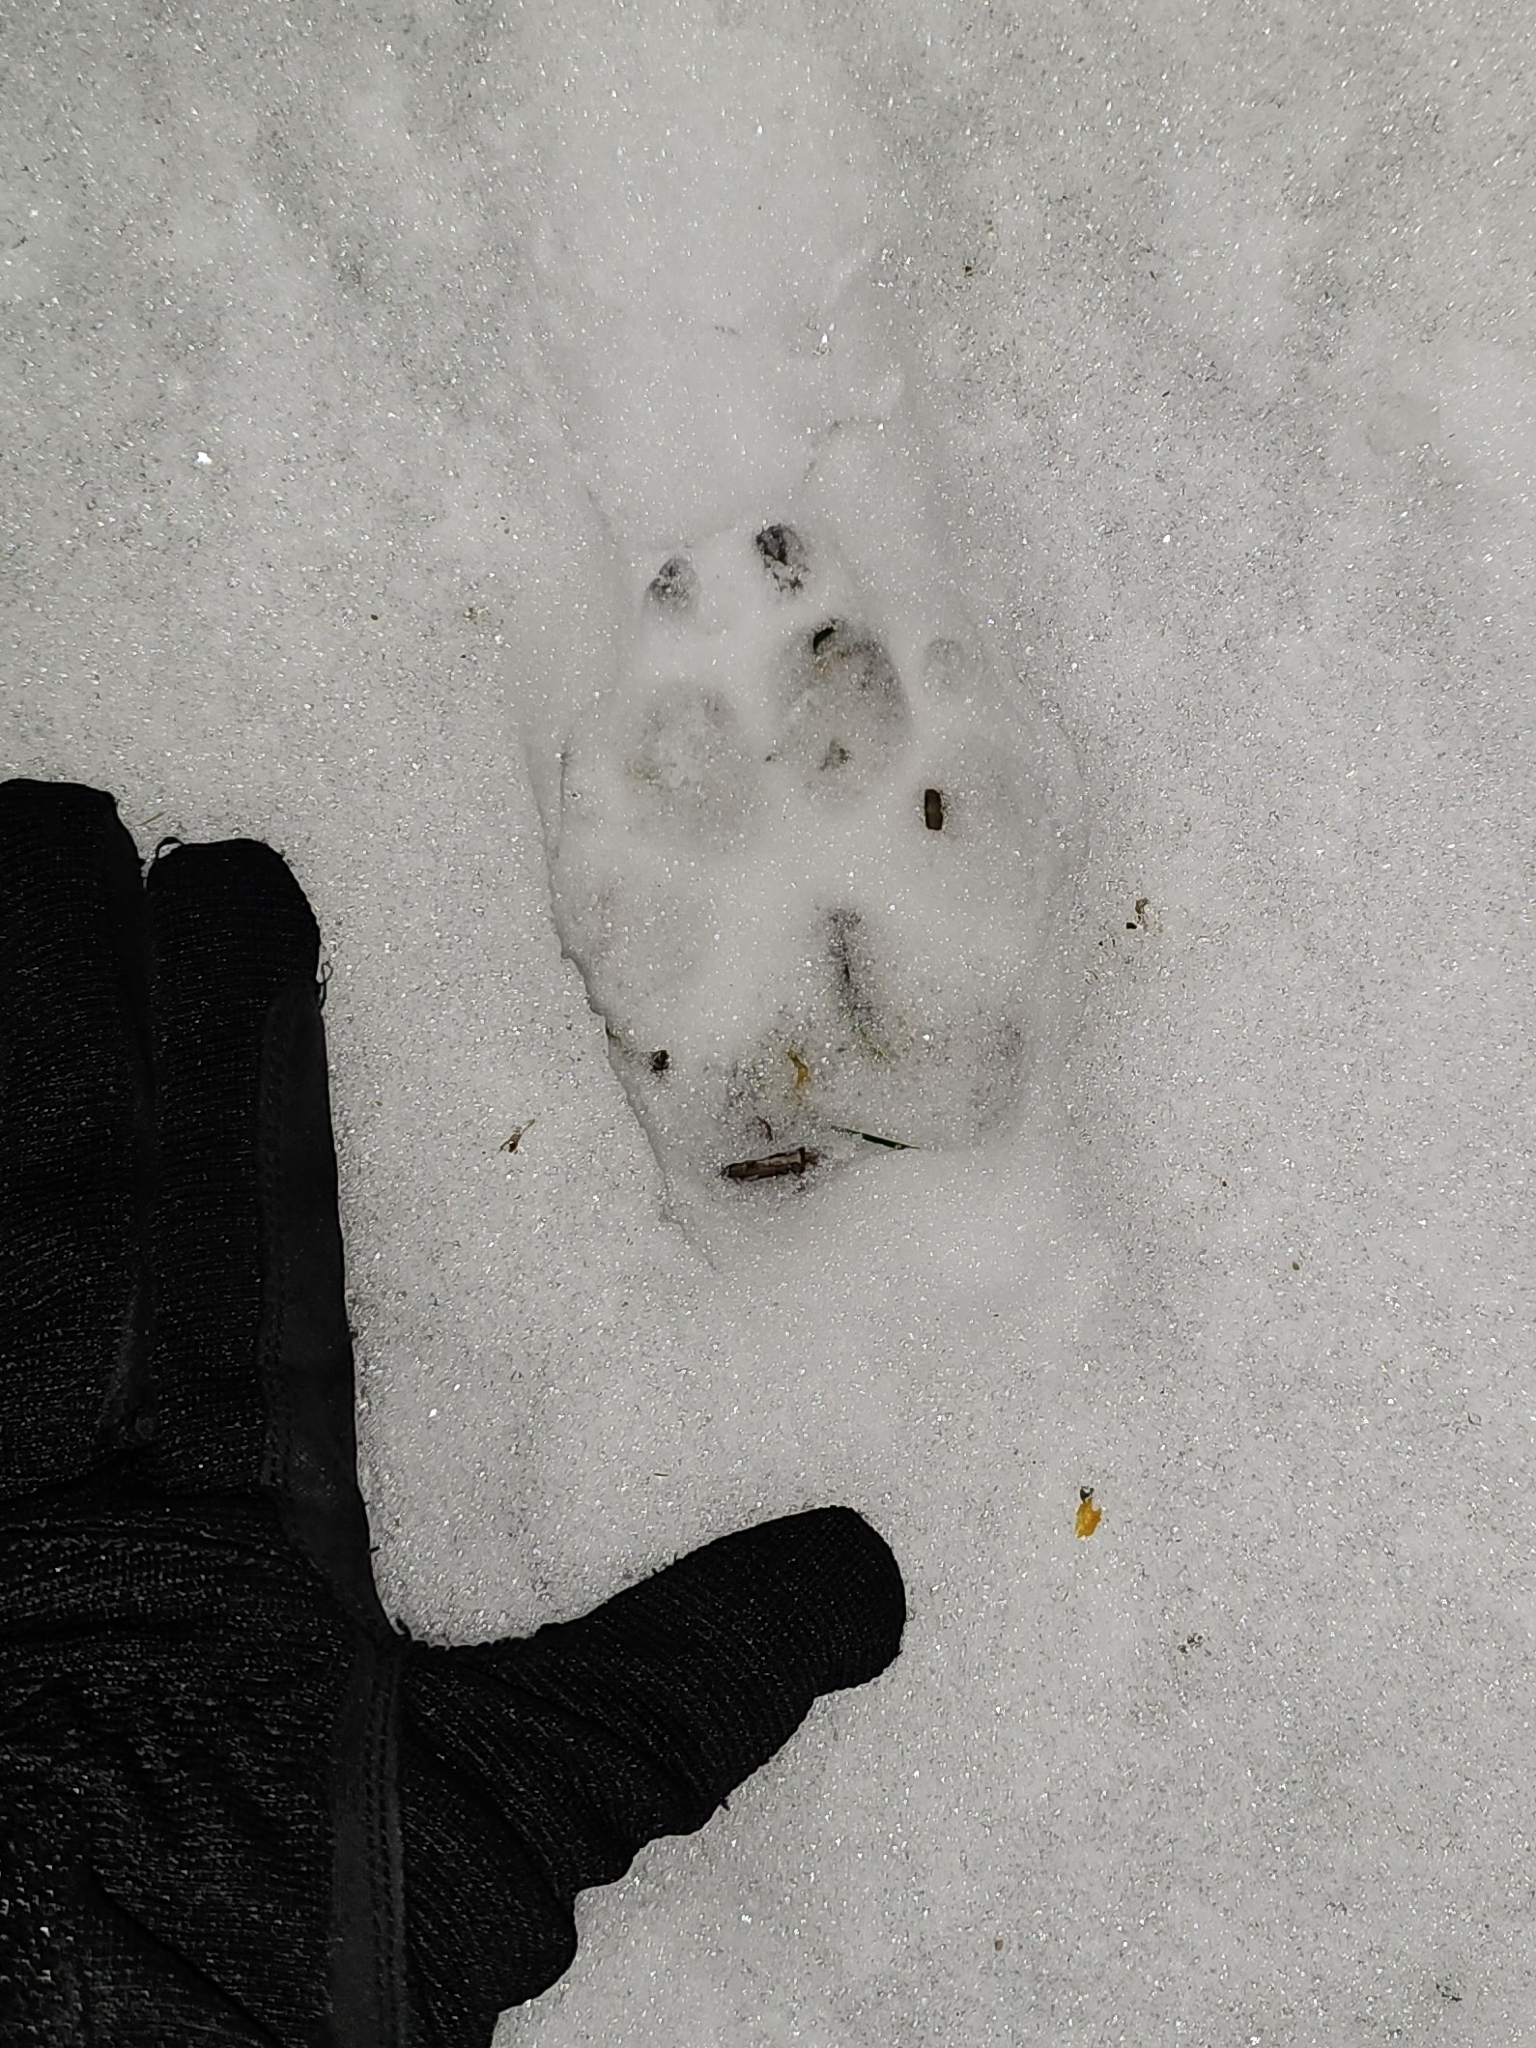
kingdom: Animalia
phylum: Chordata
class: Mammalia
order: Carnivora
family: Canidae
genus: Canis
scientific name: Canis lupus
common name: Gray wolf
